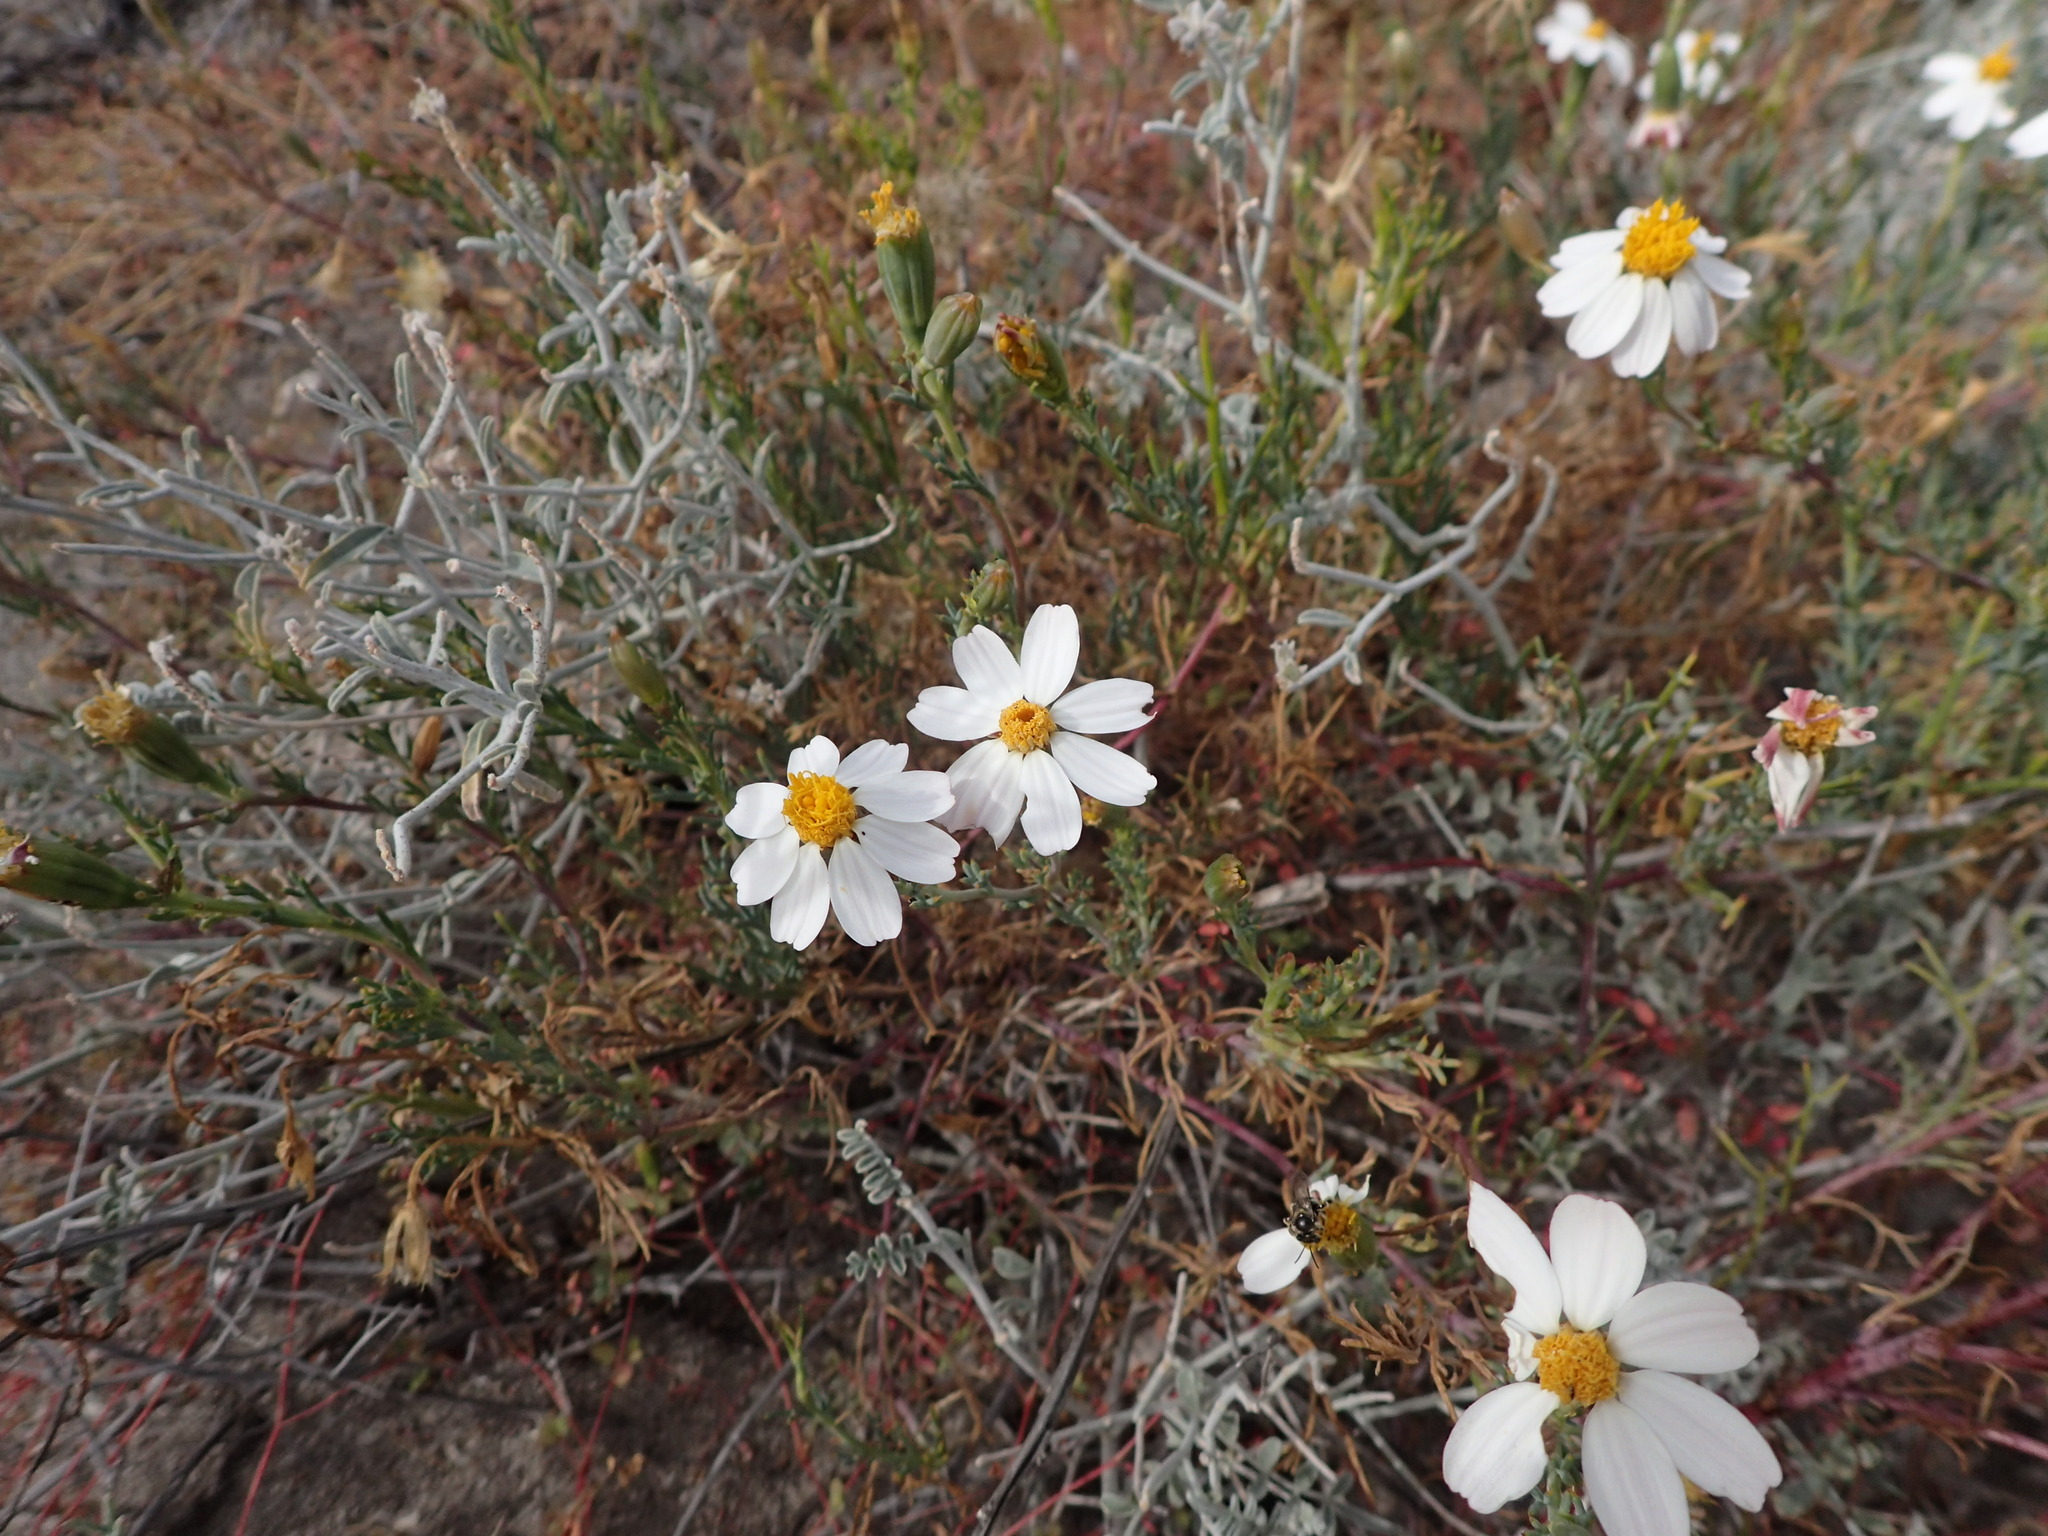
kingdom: Plantae
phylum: Tracheophyta
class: Magnoliopsida
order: Asterales
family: Asteraceae
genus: Nicolletia
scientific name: Nicolletia trifida
